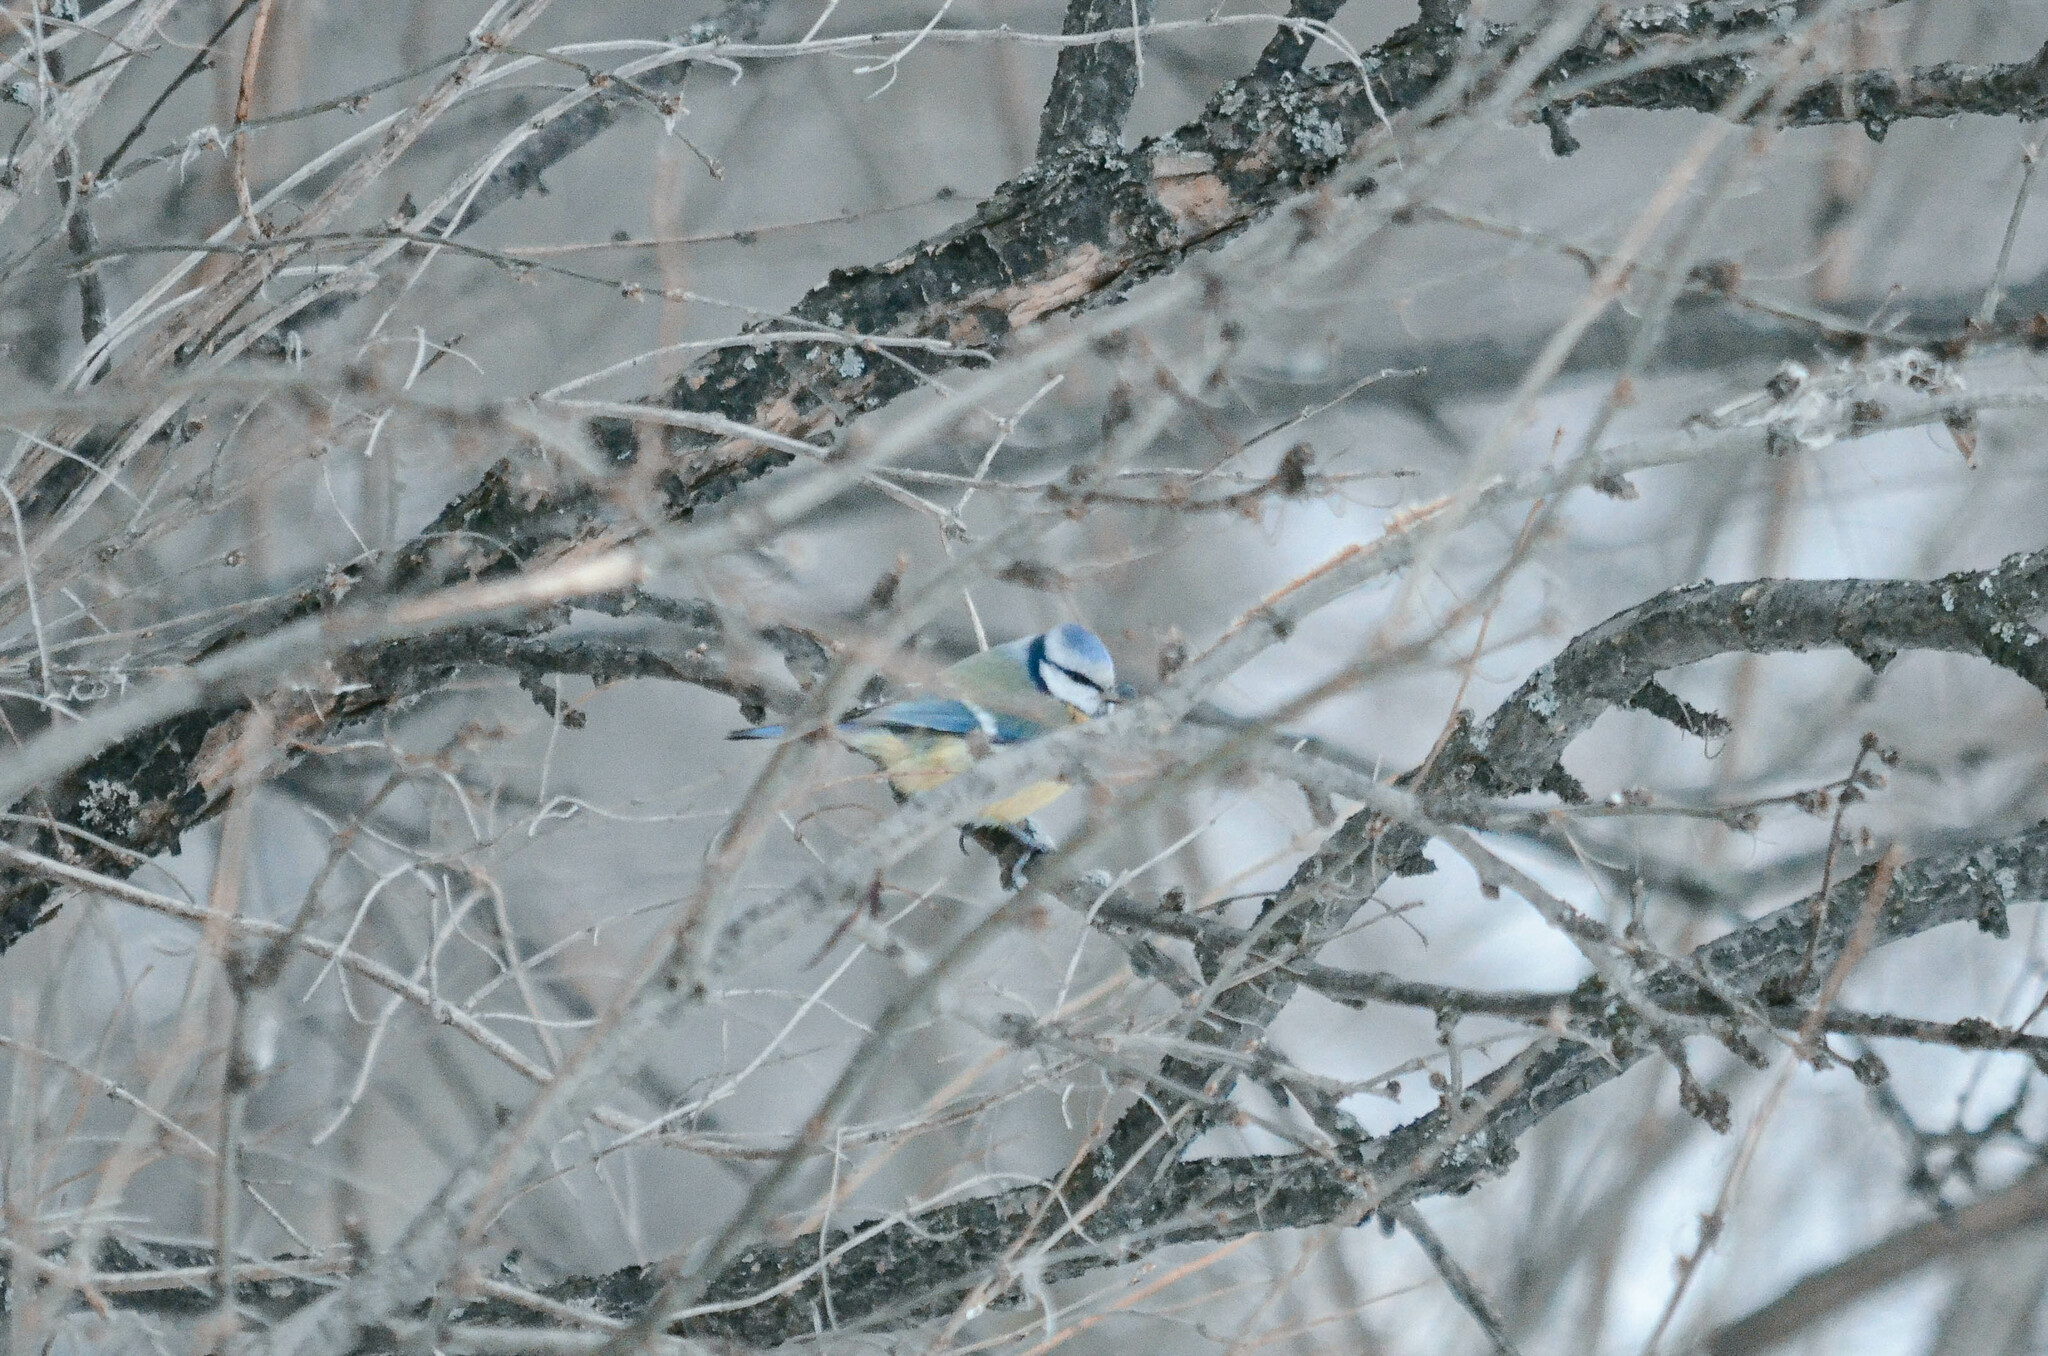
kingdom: Animalia
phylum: Chordata
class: Aves
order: Passeriformes
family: Paridae
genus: Cyanistes
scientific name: Cyanistes caeruleus
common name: Eurasian blue tit
